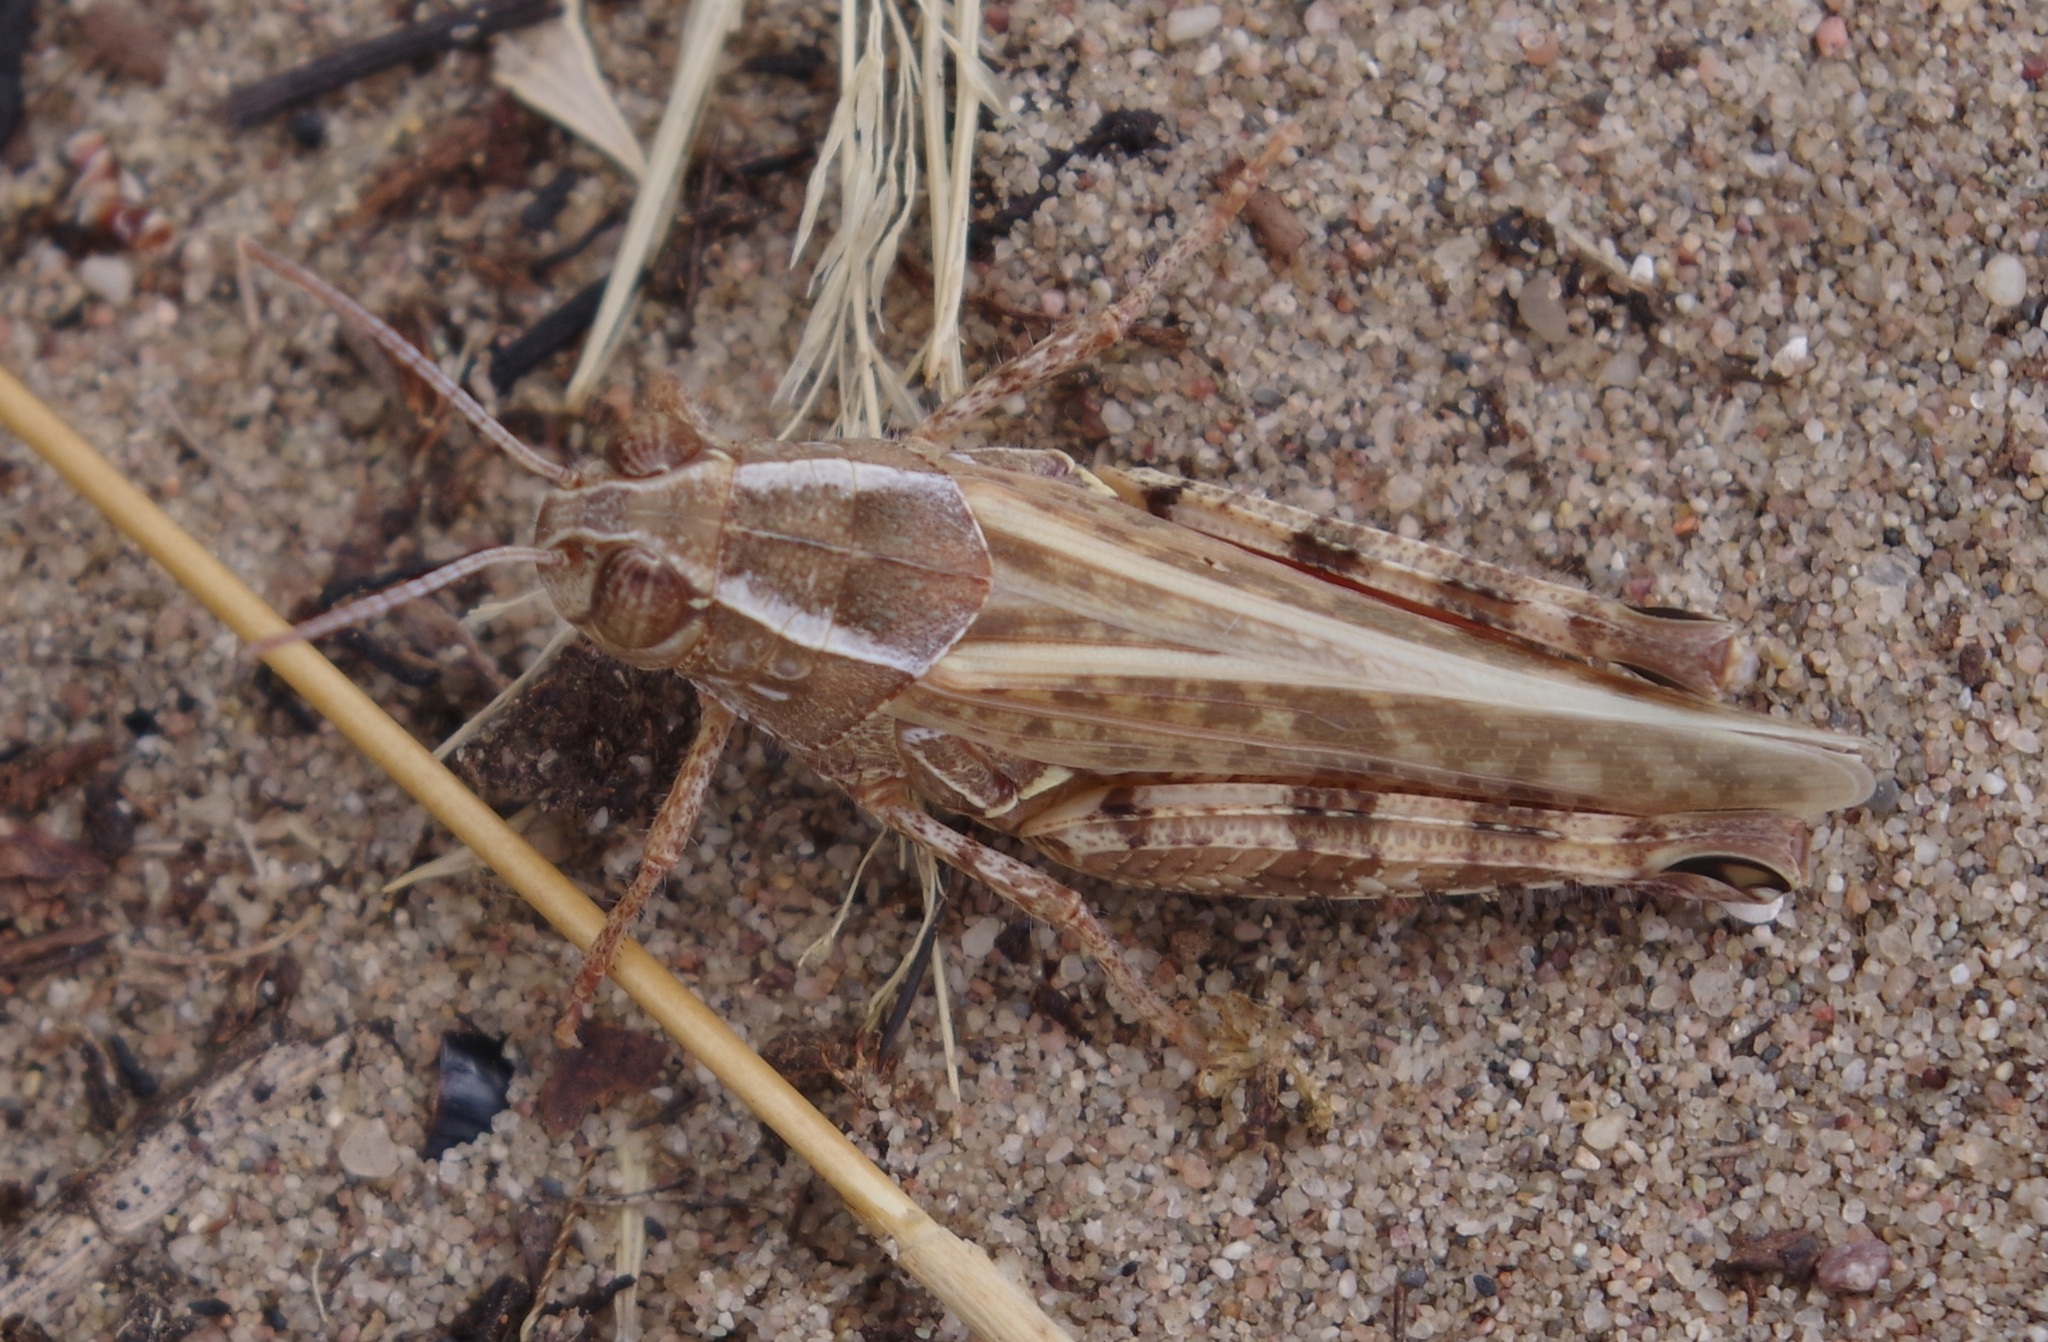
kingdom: Animalia
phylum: Arthropoda
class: Insecta
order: Orthoptera
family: Acrididae
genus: Calliptamus
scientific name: Calliptamus italicus
